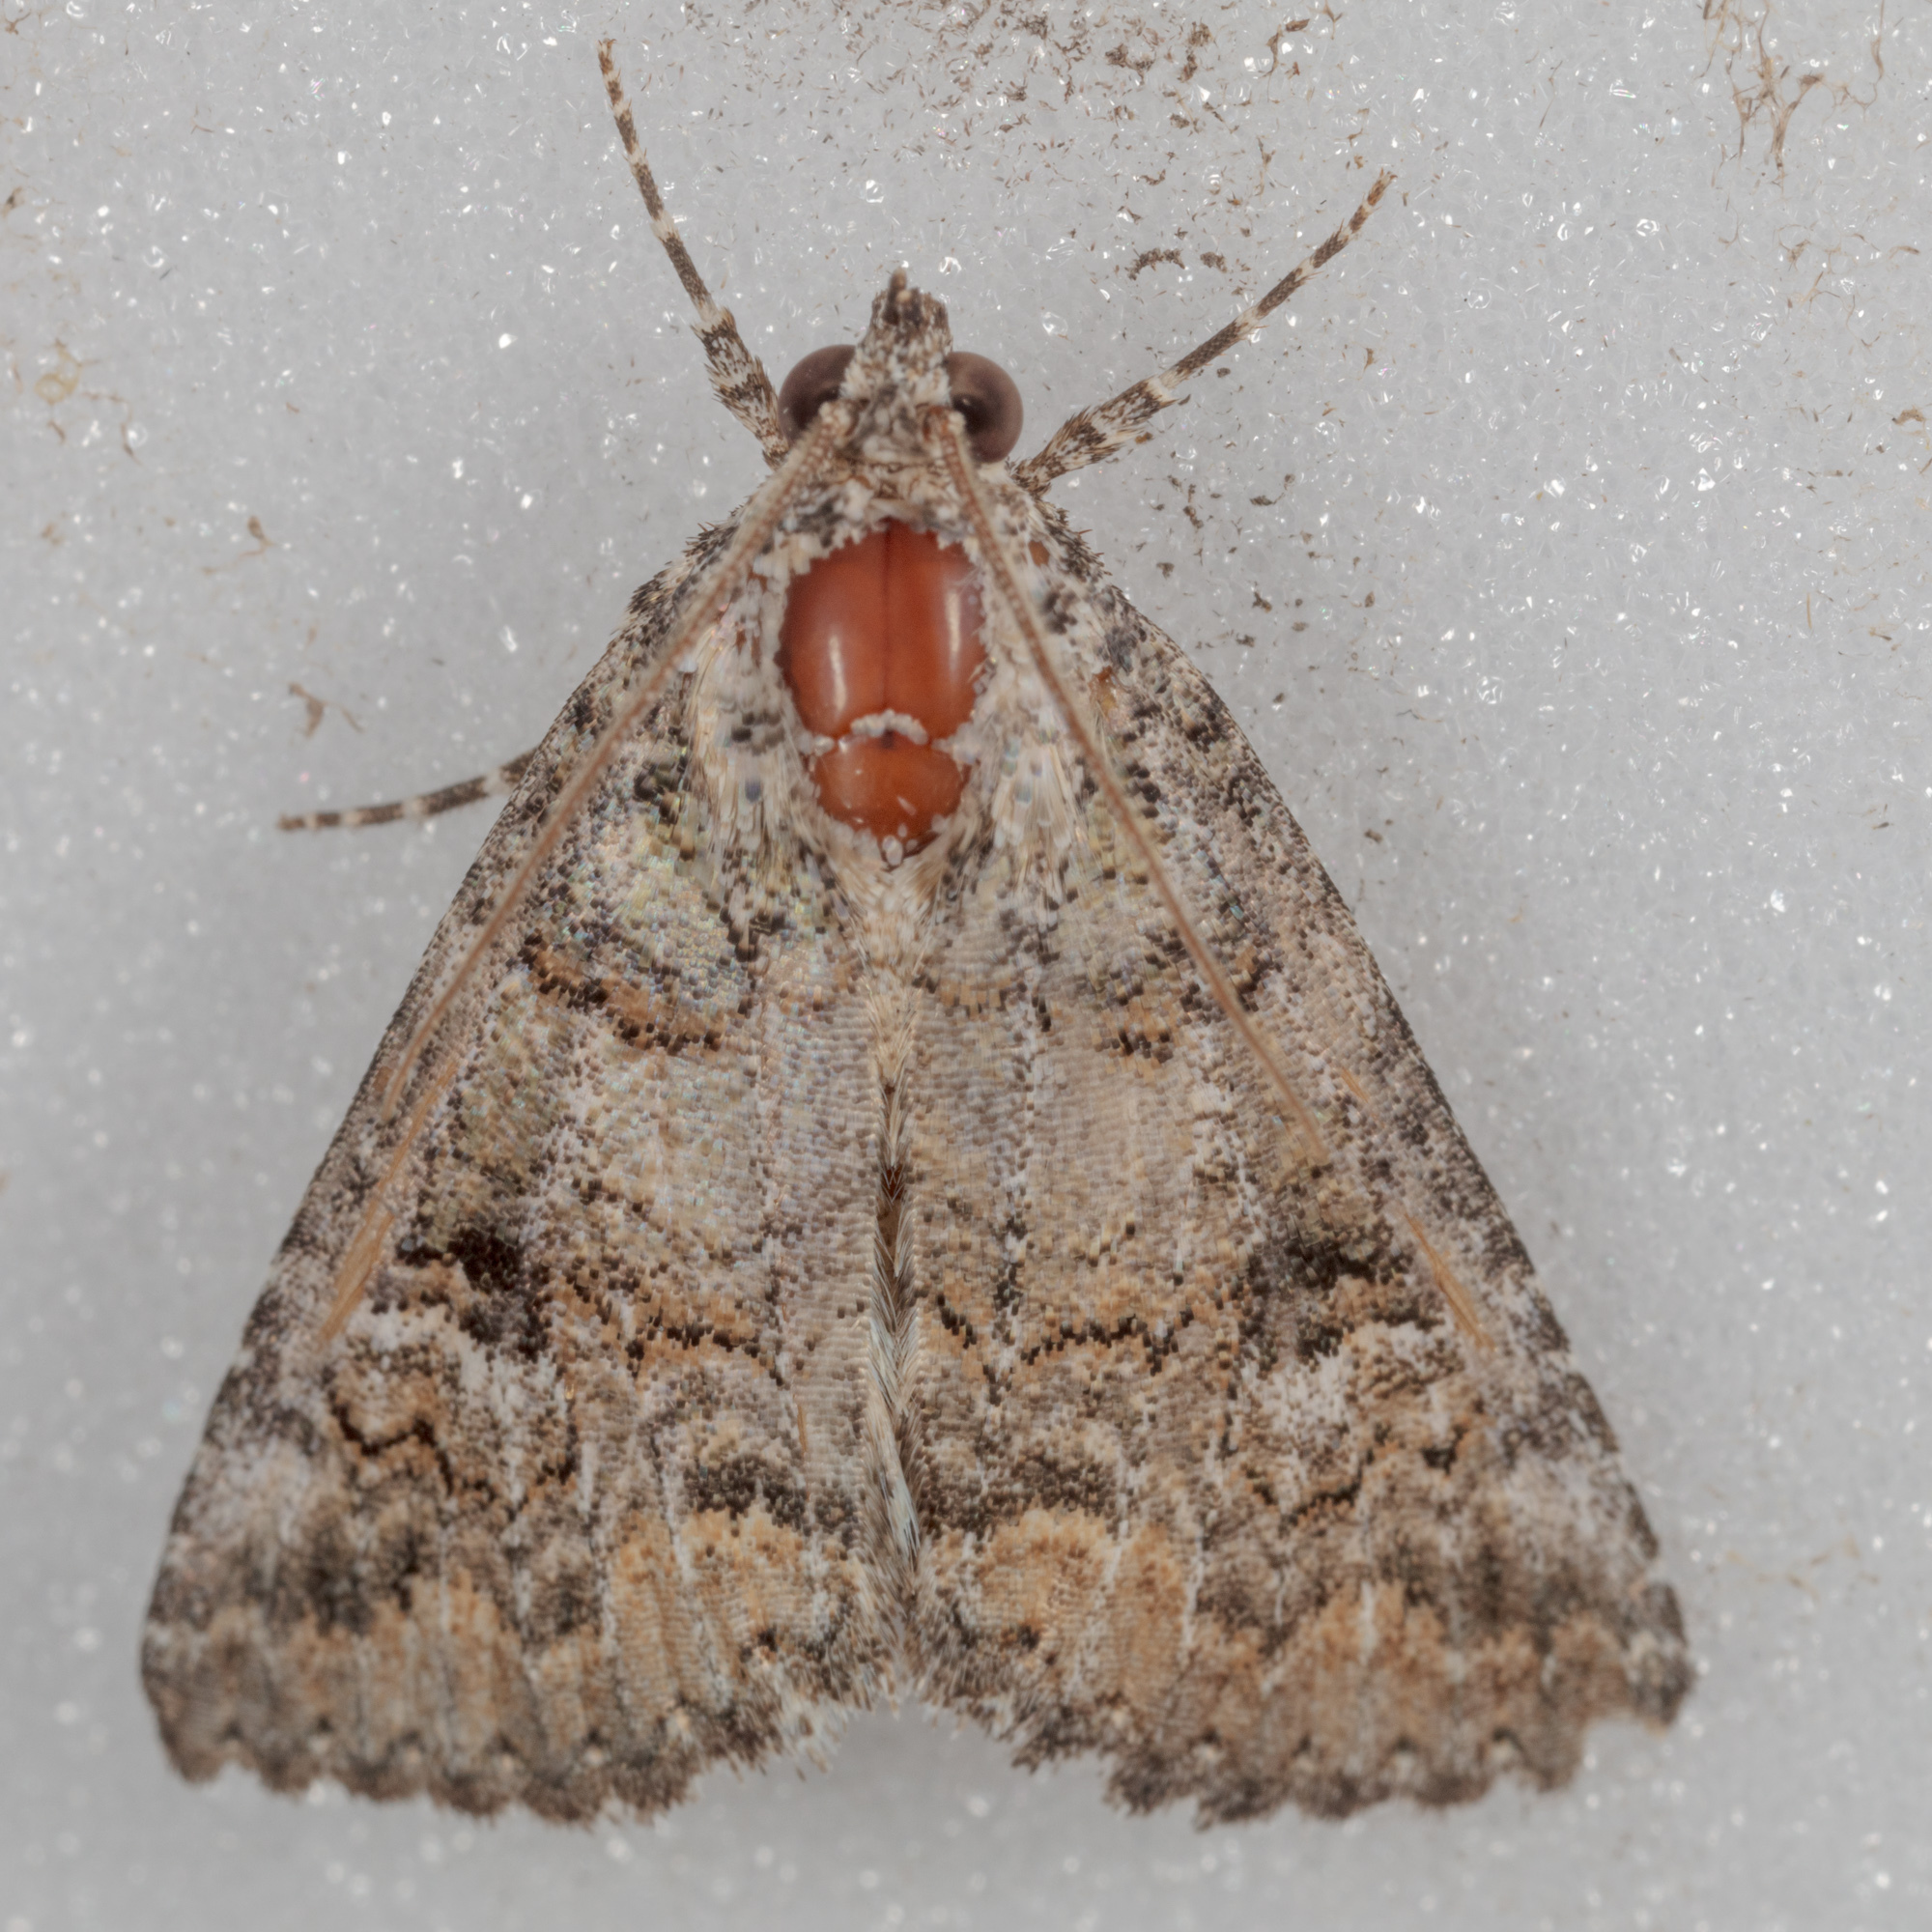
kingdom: Animalia
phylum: Arthropoda
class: Insecta
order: Lepidoptera
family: Erebidae
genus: Eubolina
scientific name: Eubolina impartialis
